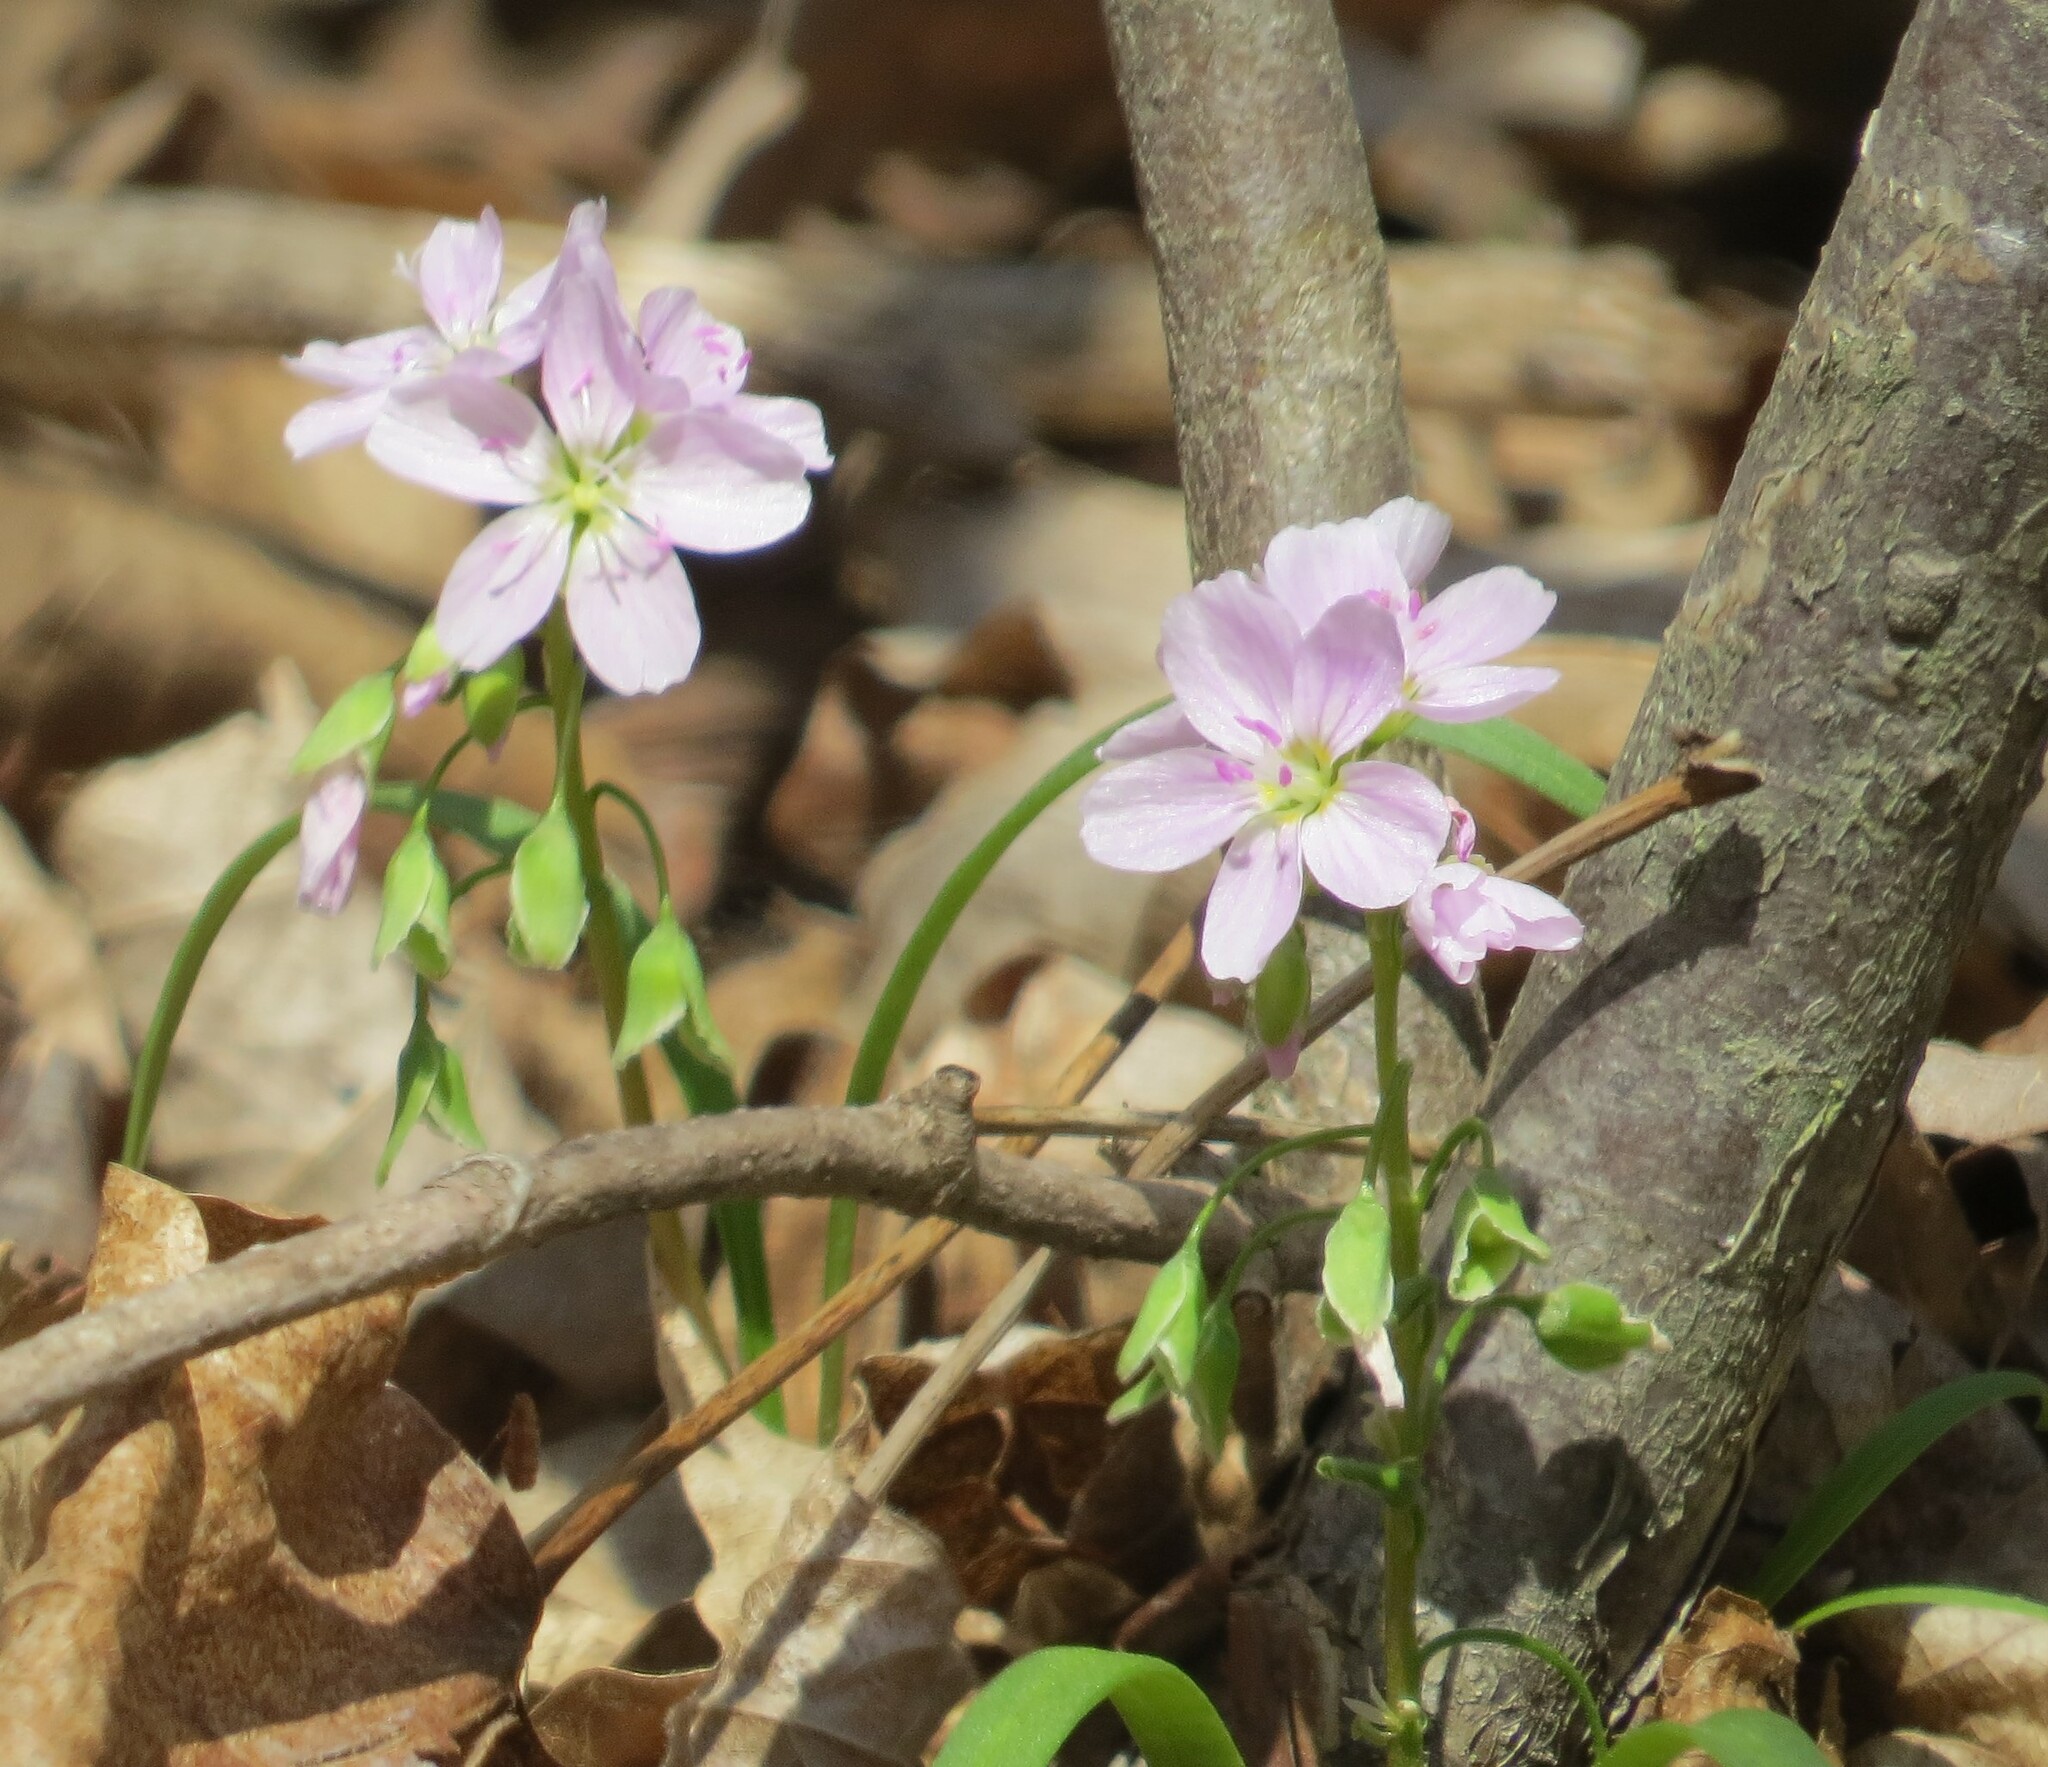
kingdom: Plantae
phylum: Tracheophyta
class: Magnoliopsida
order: Caryophyllales
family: Montiaceae
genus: Claytonia
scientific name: Claytonia virginica
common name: Virginia springbeauty
